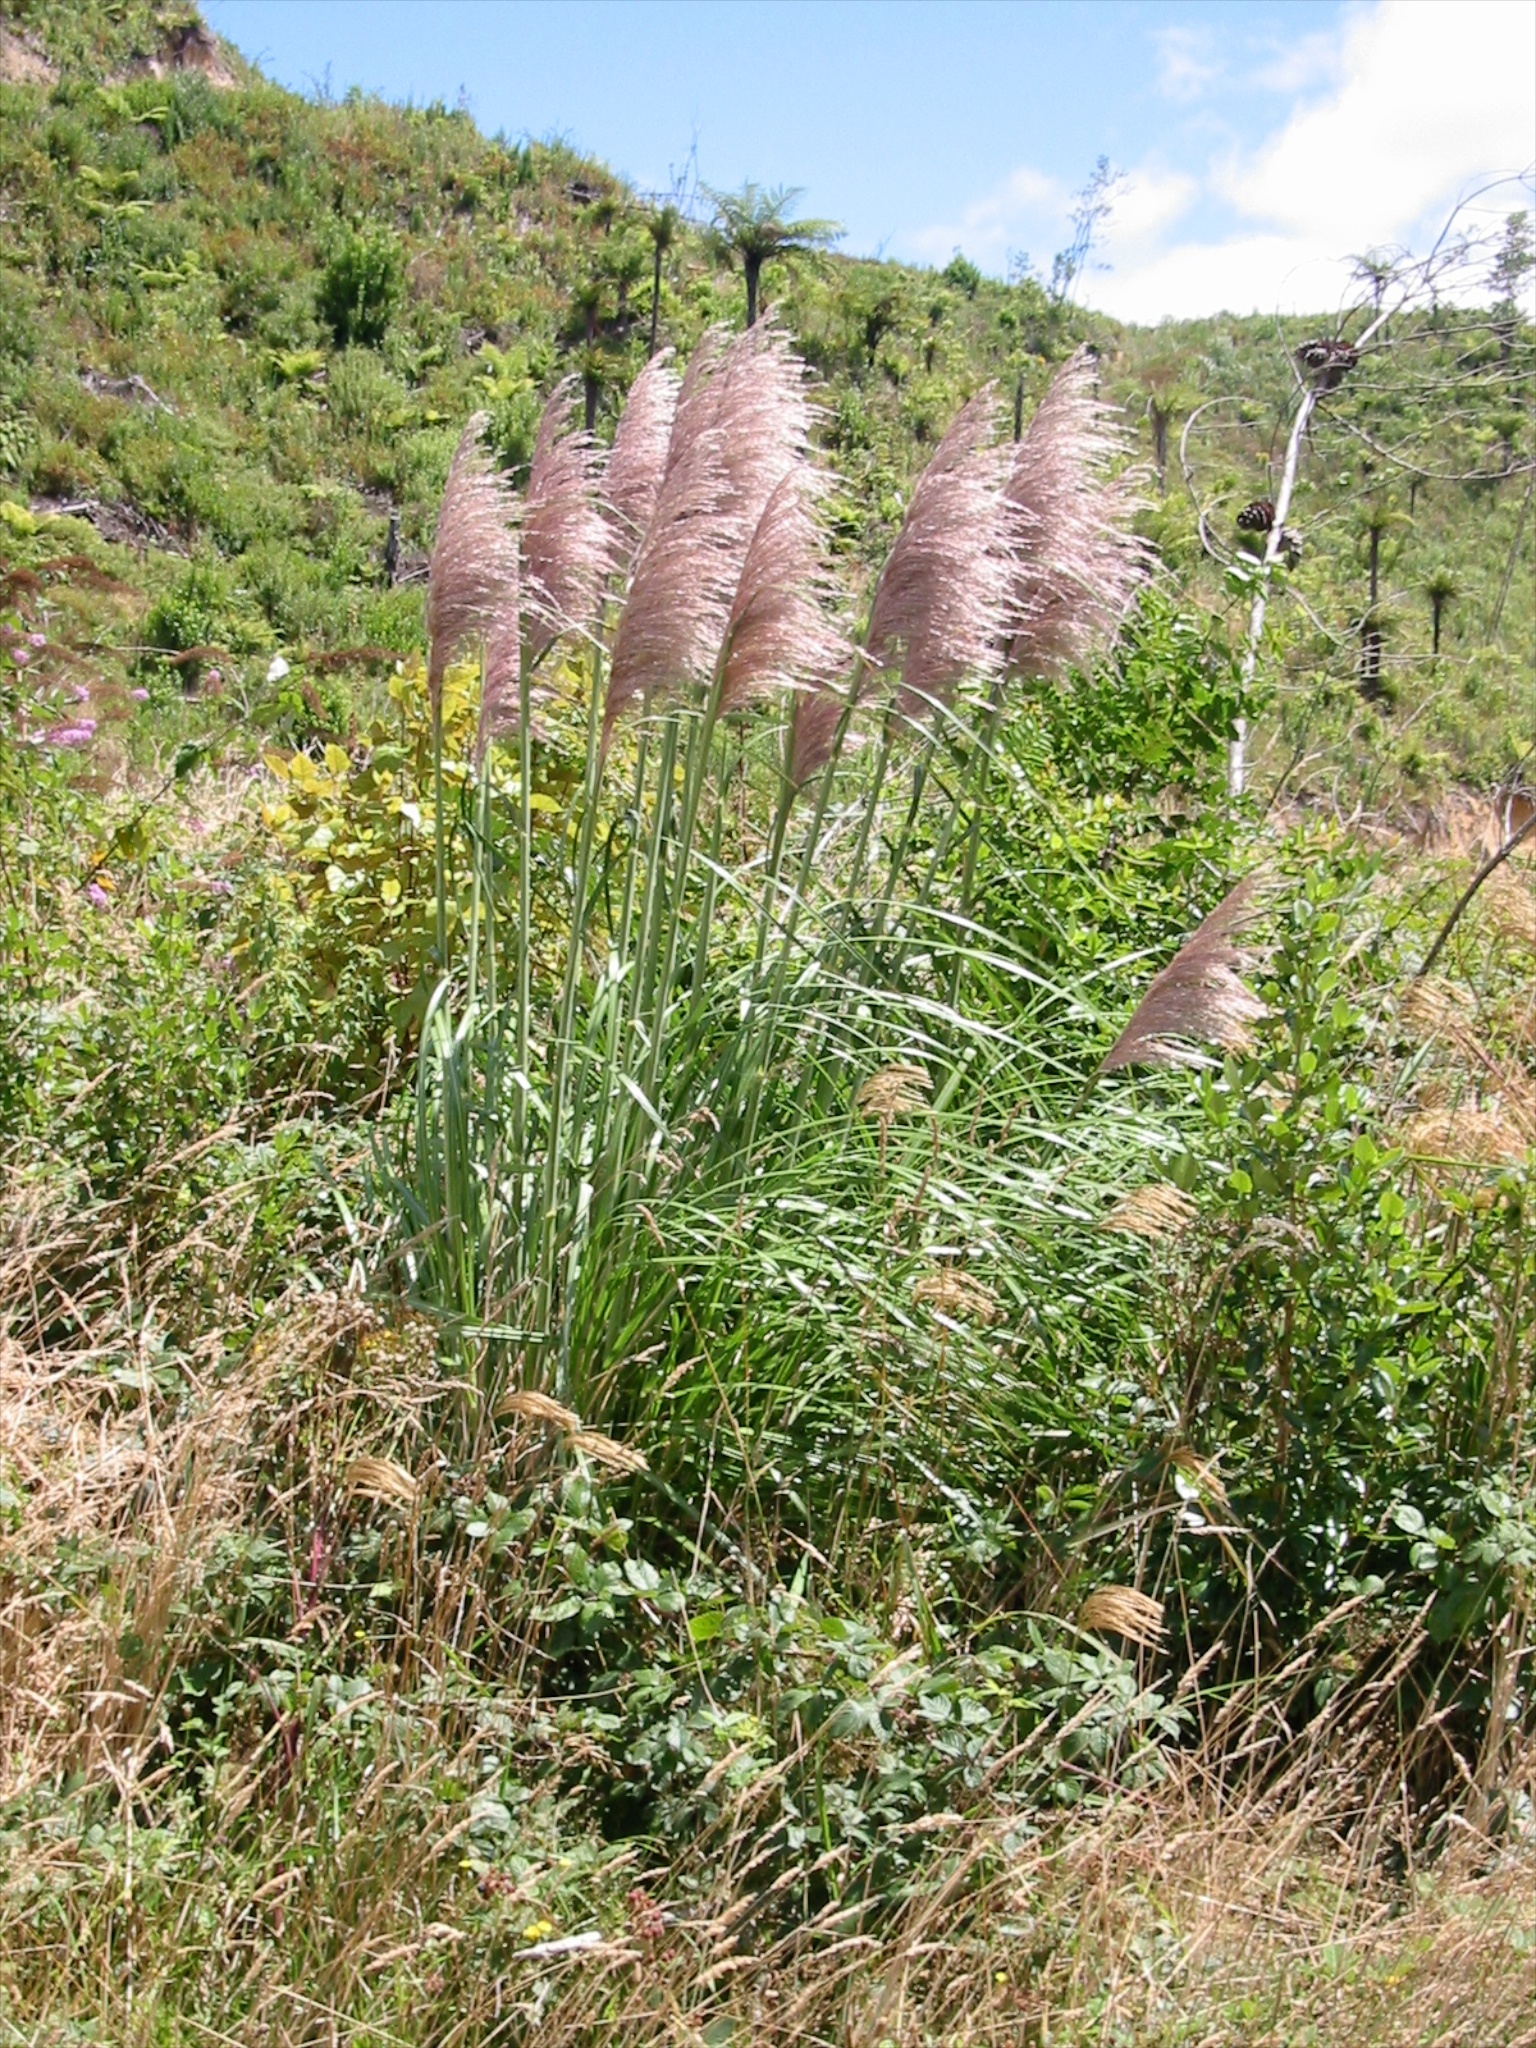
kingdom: Plantae
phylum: Tracheophyta
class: Liliopsida
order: Poales
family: Poaceae
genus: Cortaderia
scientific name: Cortaderia jubata
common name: Purple pampas grass
